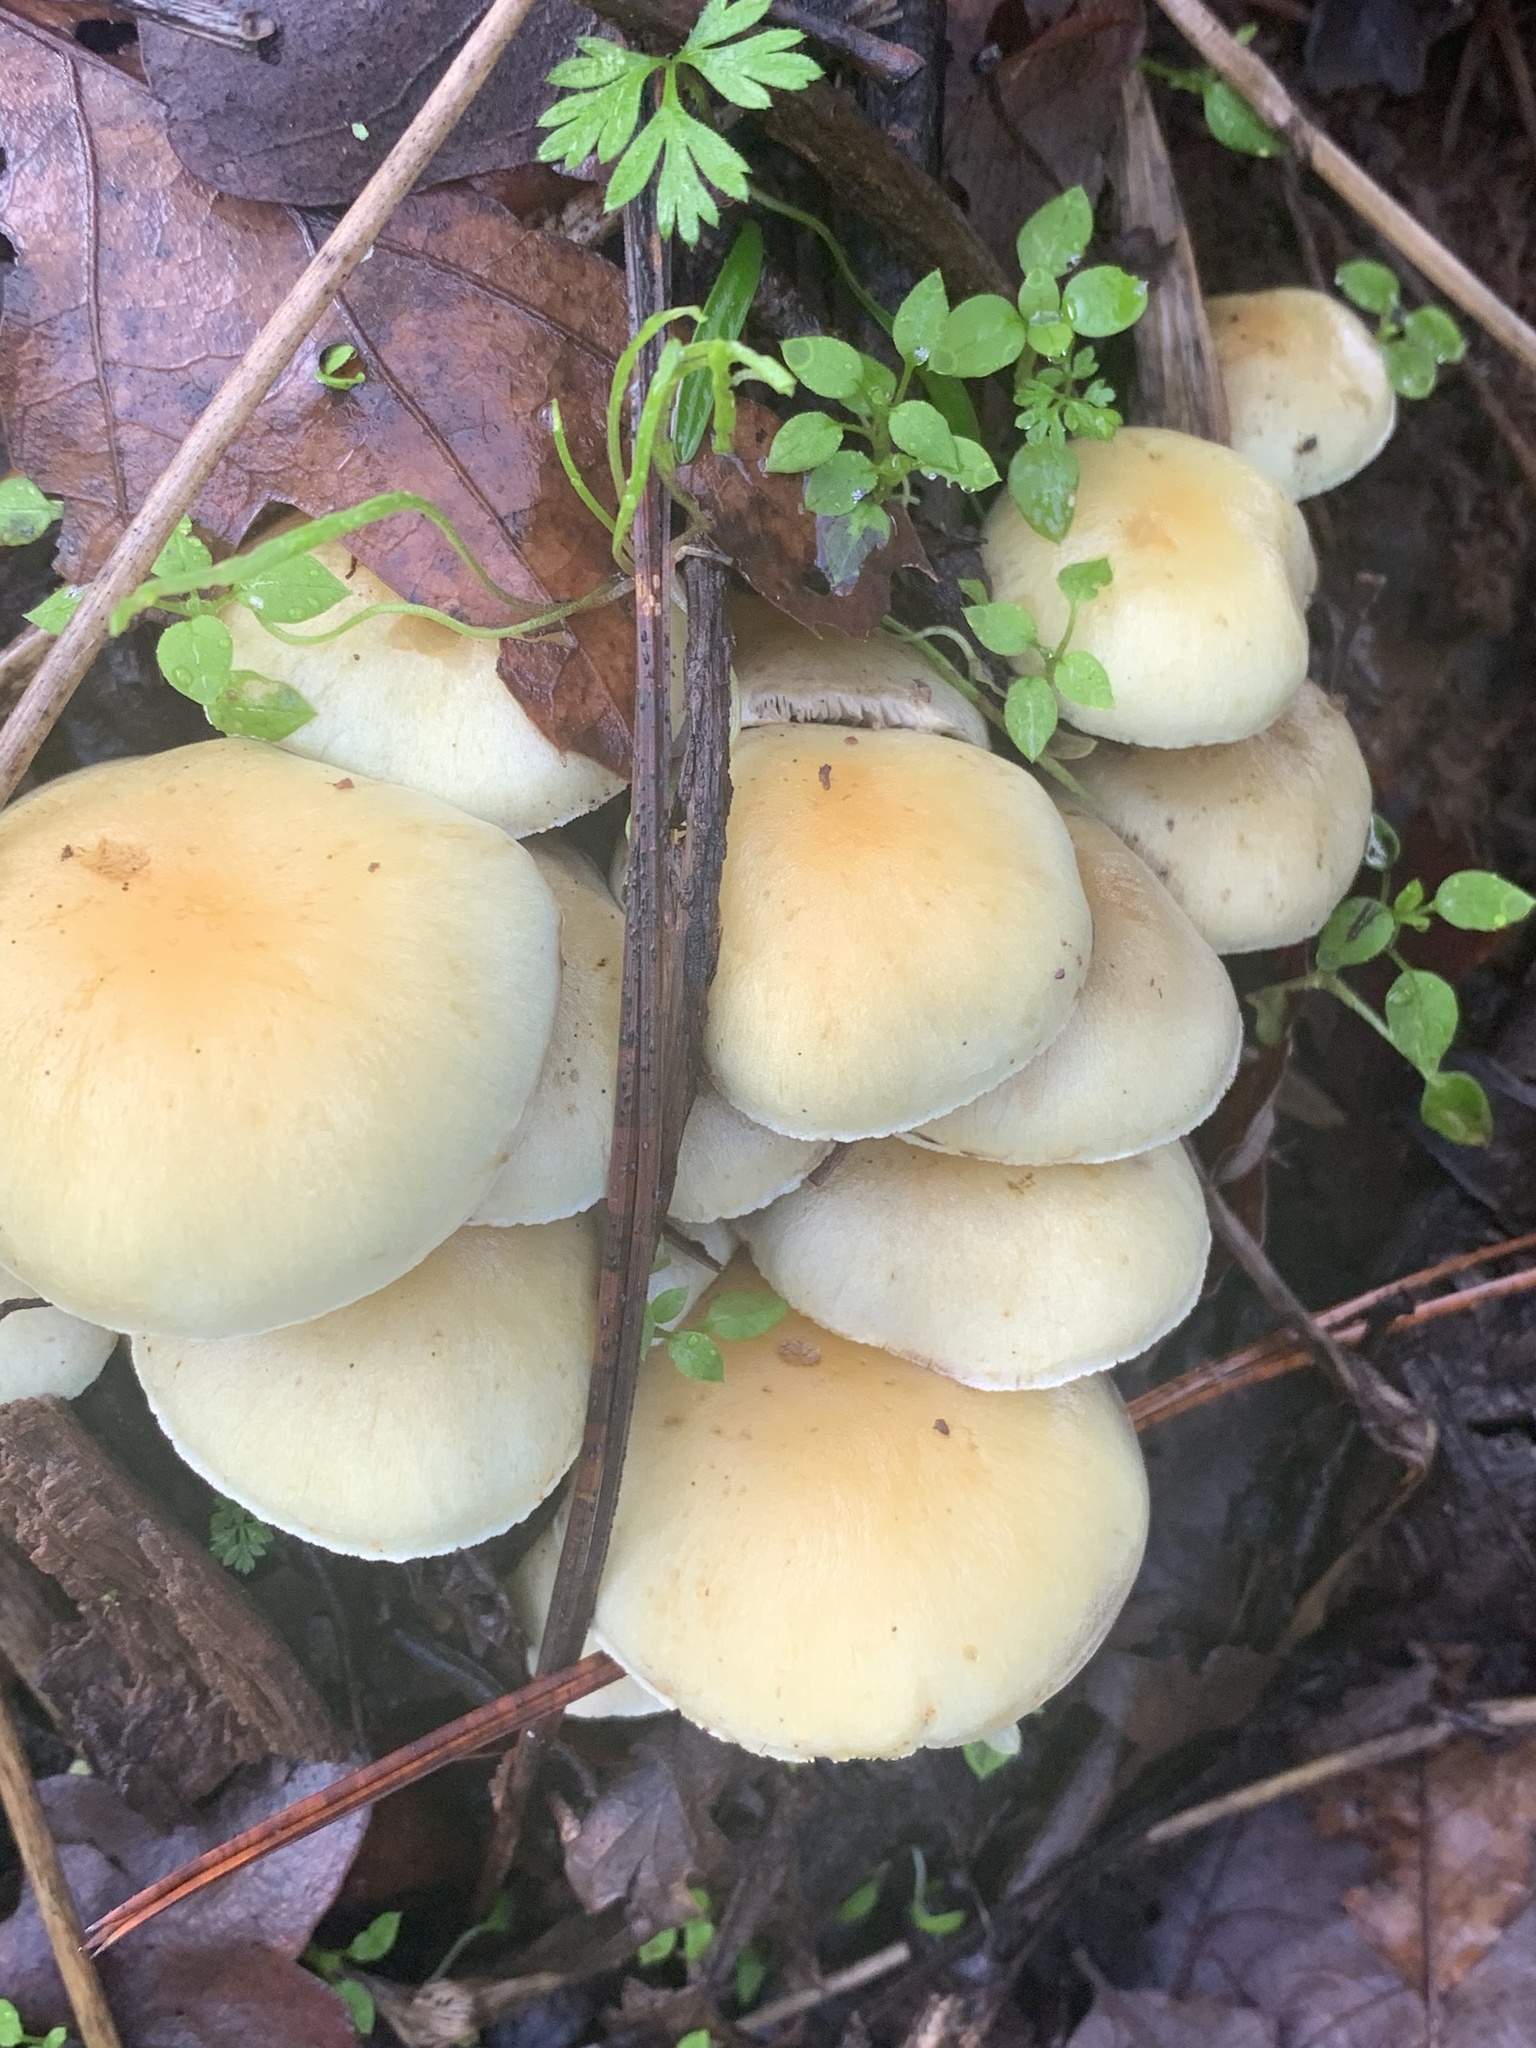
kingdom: Fungi
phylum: Basidiomycota
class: Agaricomycetes
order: Agaricales
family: Strophariaceae
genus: Hypholoma
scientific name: Hypholoma fasciculare
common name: Sulphur tuft
